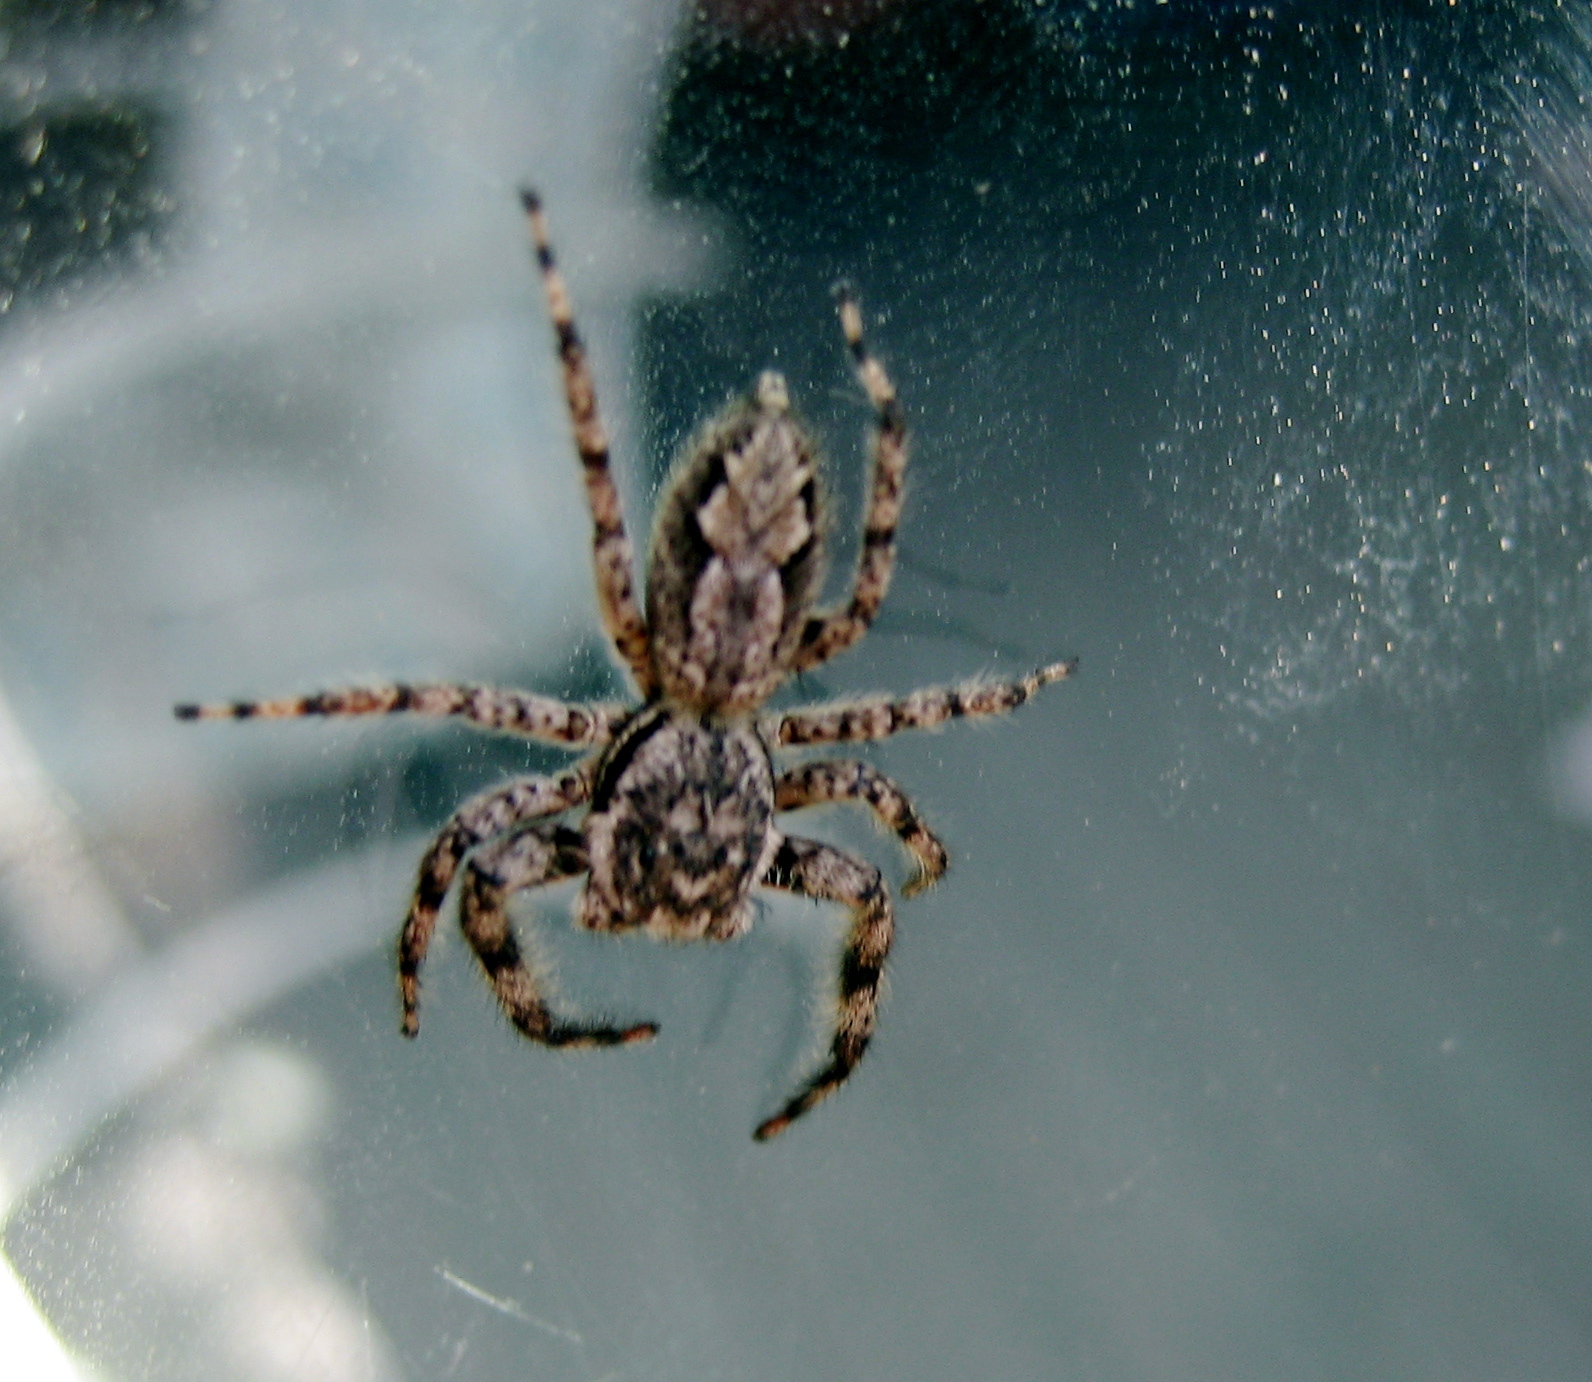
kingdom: Animalia
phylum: Arthropoda
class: Arachnida
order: Araneae
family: Salticidae
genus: Platycryptus
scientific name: Platycryptus undatus
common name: Tan jumping spider
